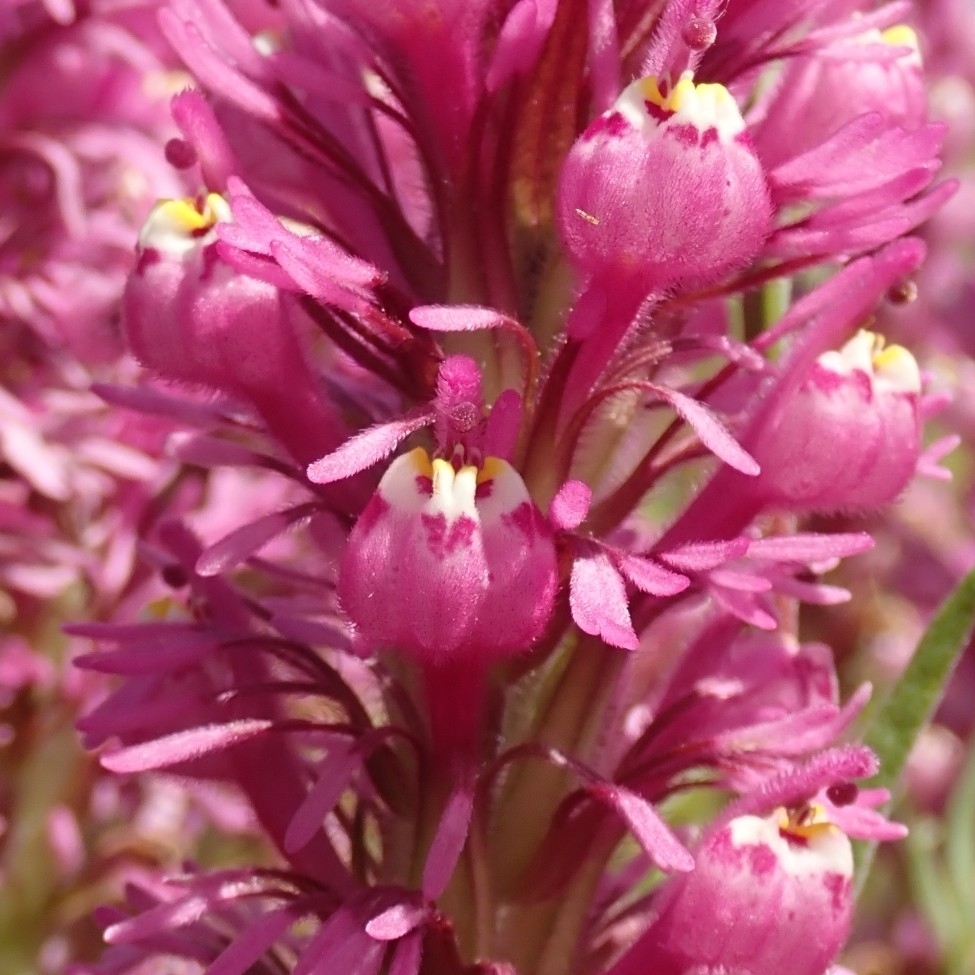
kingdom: Plantae
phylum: Tracheophyta
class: Magnoliopsida
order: Lamiales
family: Orobanchaceae
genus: Castilleja
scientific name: Castilleja exserta
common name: Purple owl-clover
